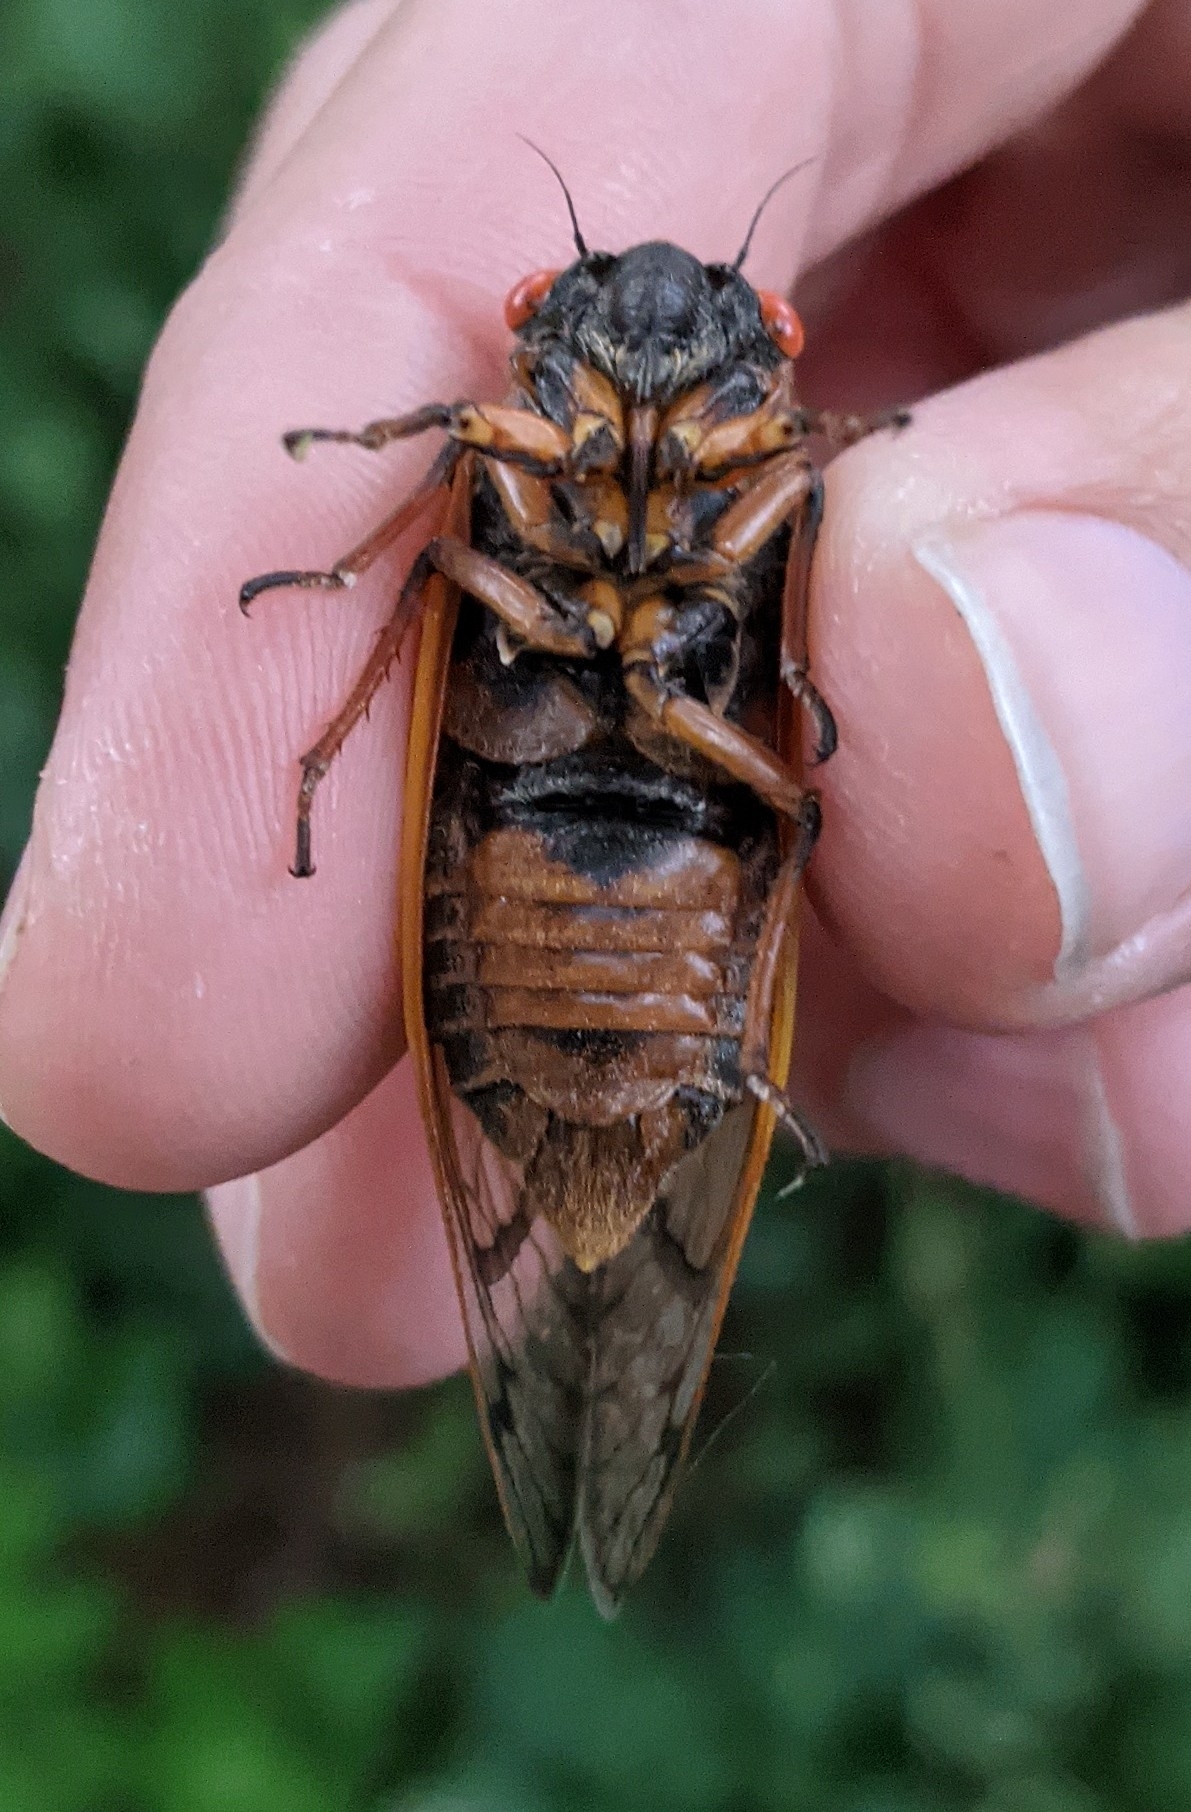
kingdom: Animalia
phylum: Arthropoda
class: Insecta
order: Hemiptera
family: Cicadidae
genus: Magicicada
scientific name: Magicicada septendecim
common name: Periodical cicada
